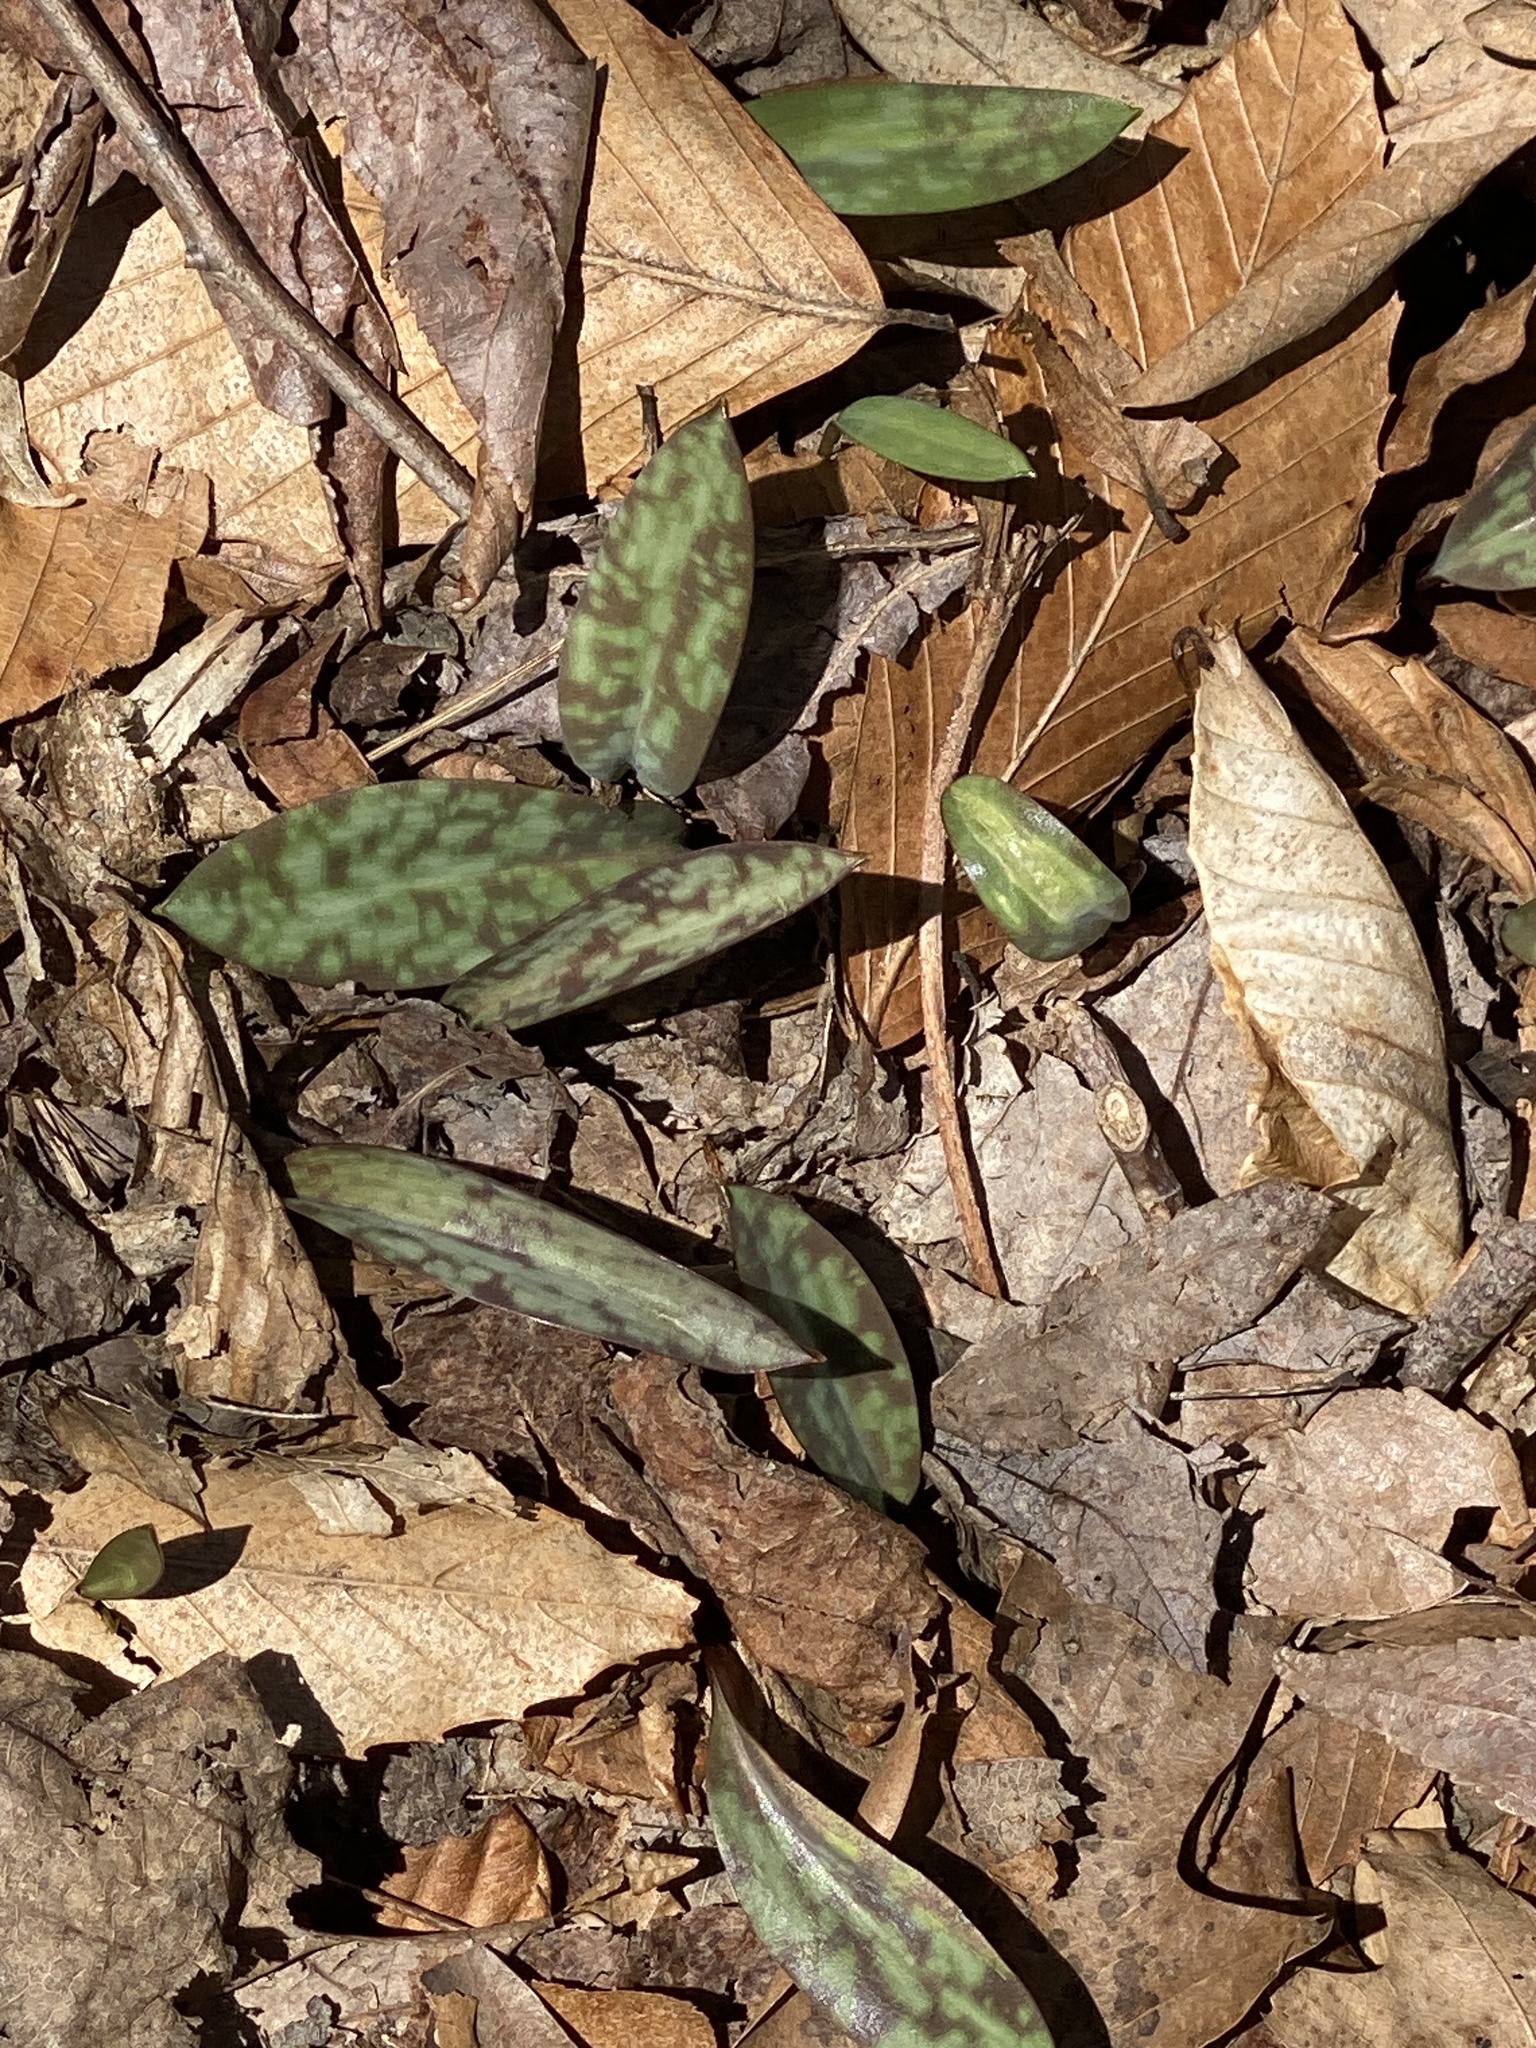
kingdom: Plantae
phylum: Tracheophyta
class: Liliopsida
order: Liliales
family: Liliaceae
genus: Erythronium
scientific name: Erythronium americanum
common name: Yellow adder's-tongue
